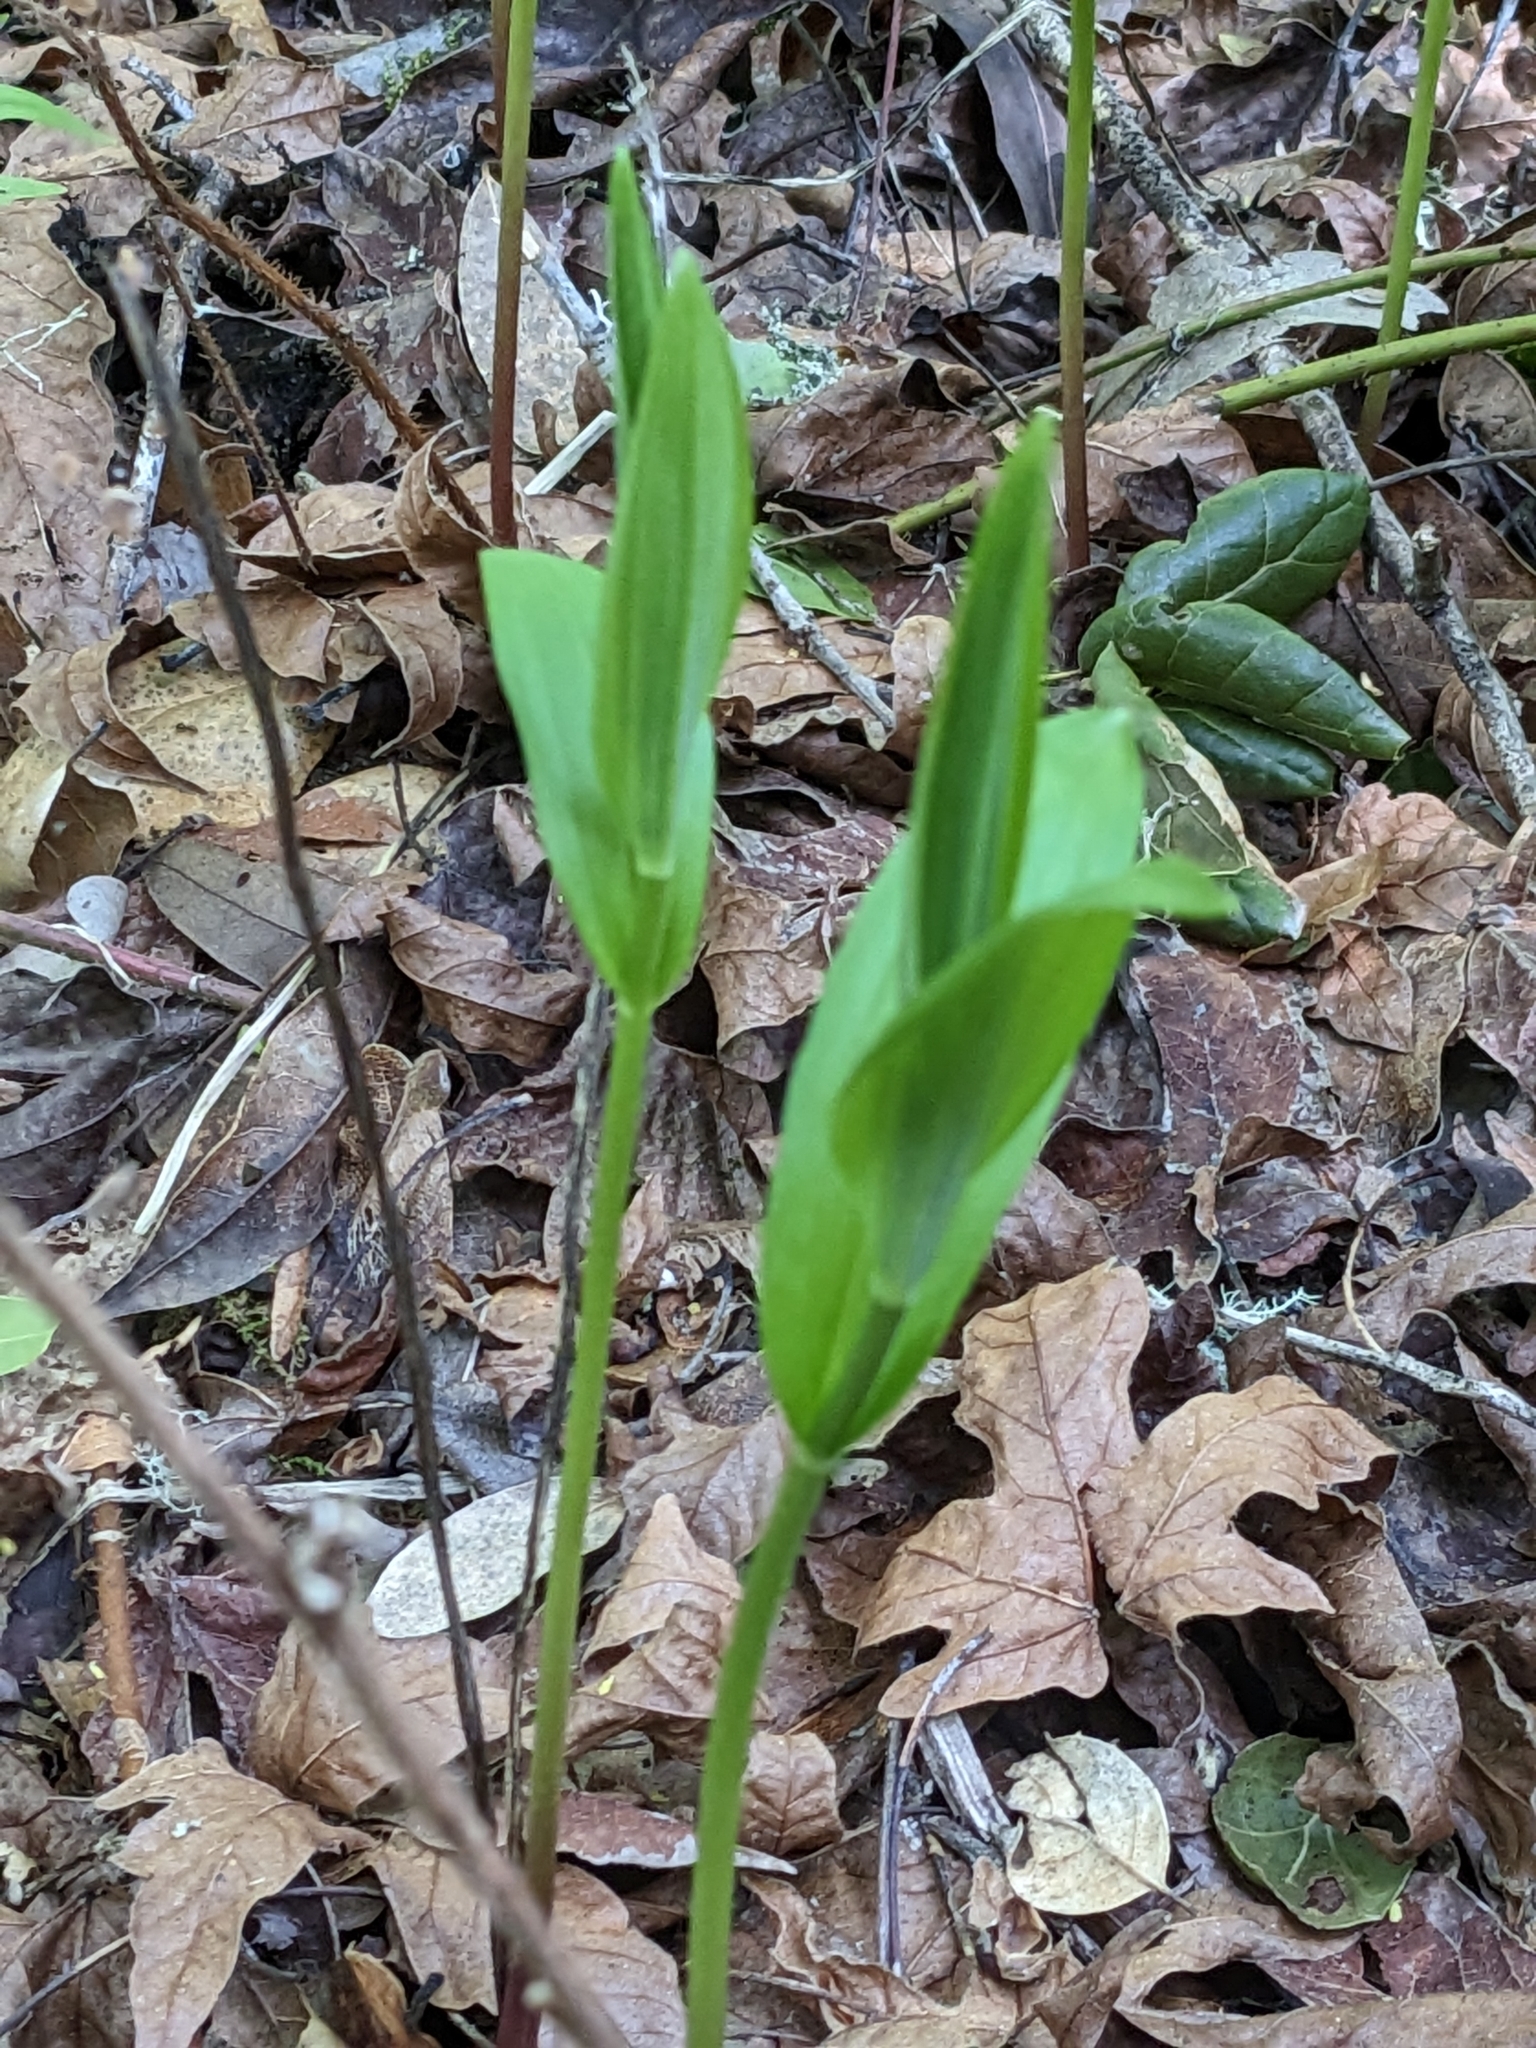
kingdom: Plantae
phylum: Tracheophyta
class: Liliopsida
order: Asparagales
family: Asparagaceae
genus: Maianthemum
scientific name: Maianthemum stellatum
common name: Little false solomon's seal
